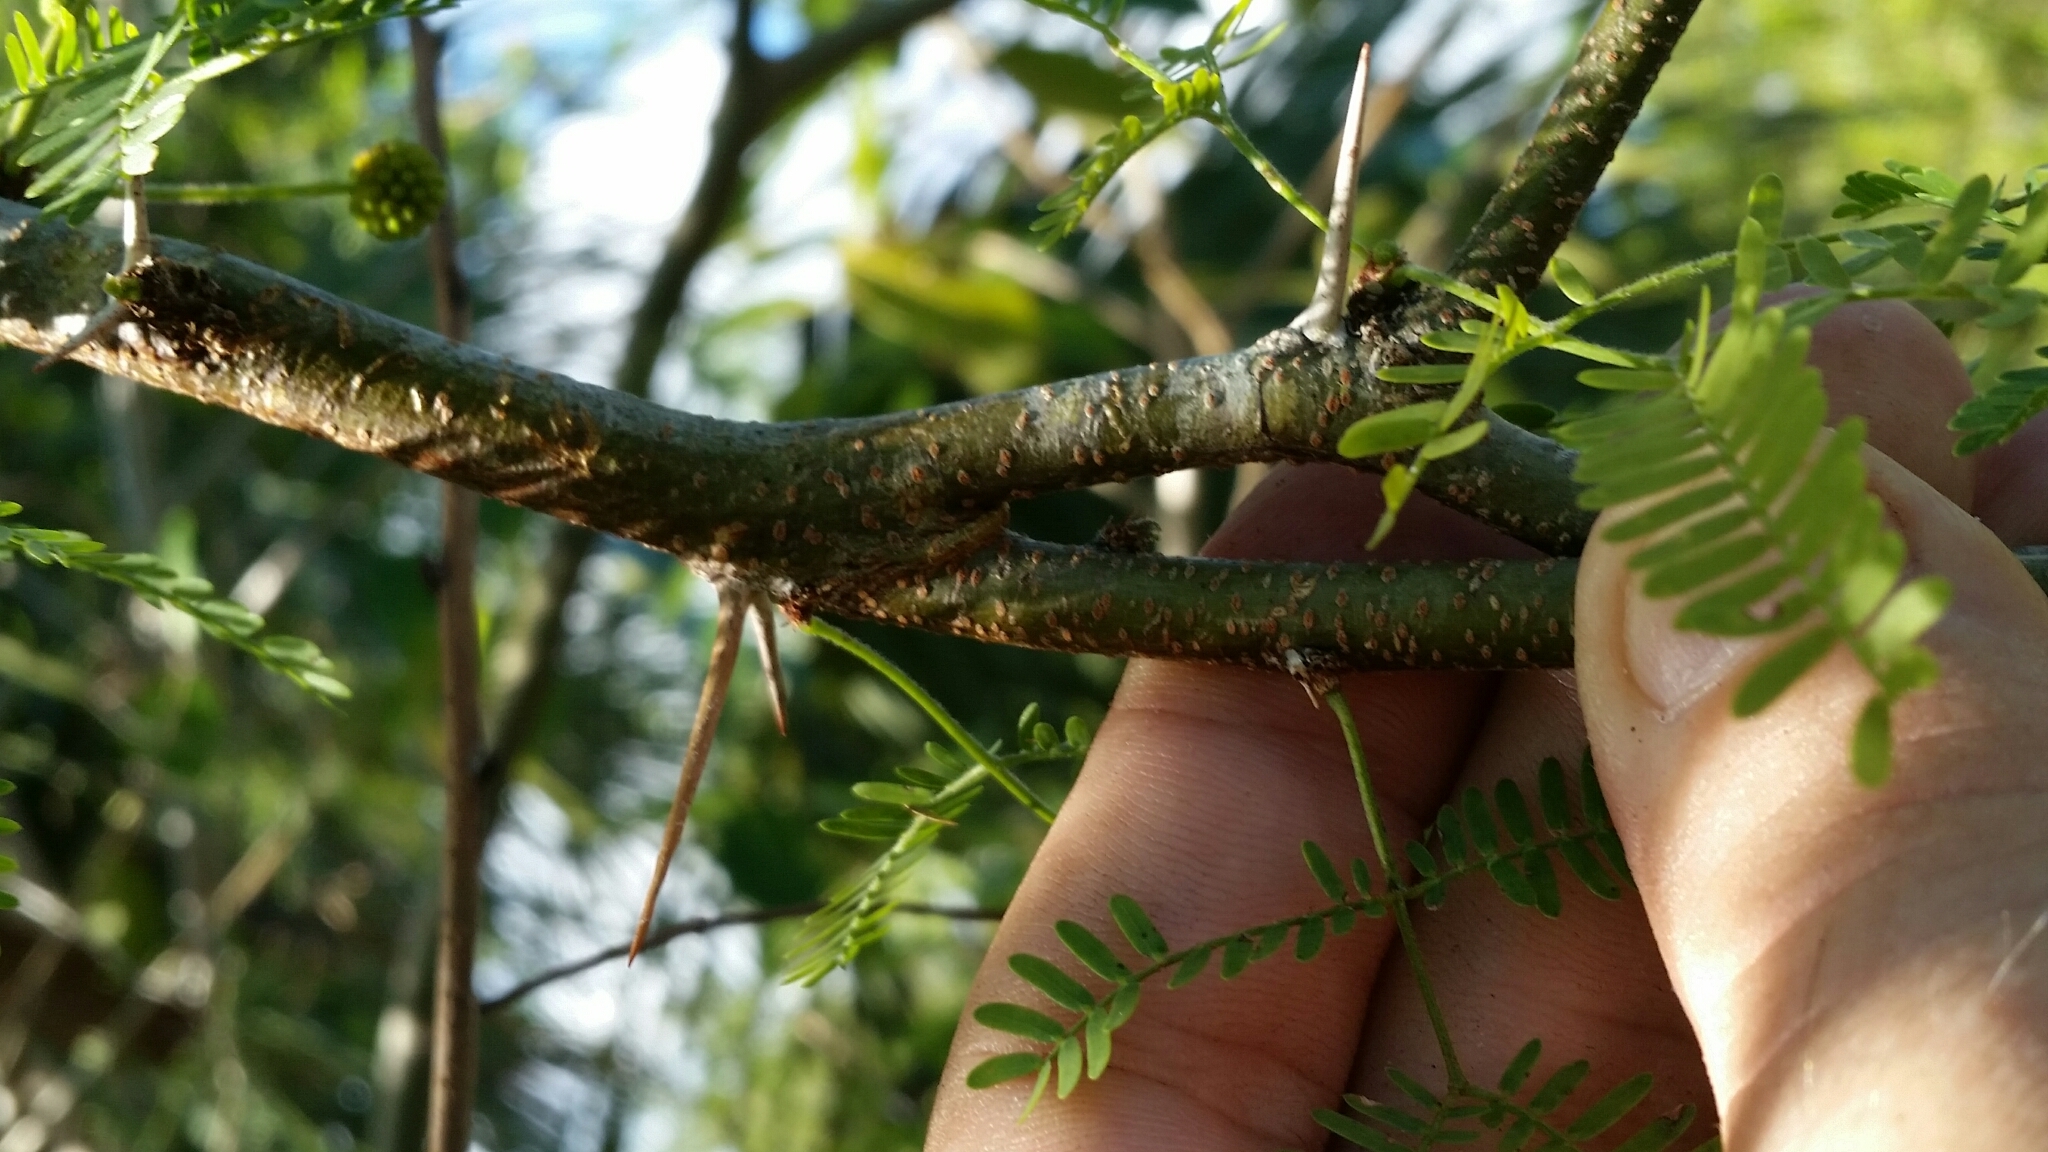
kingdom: Plantae
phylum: Tracheophyta
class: Magnoliopsida
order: Fabales
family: Fabaceae
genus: Vachellia
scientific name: Vachellia farnesiana
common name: Sweet acacia
